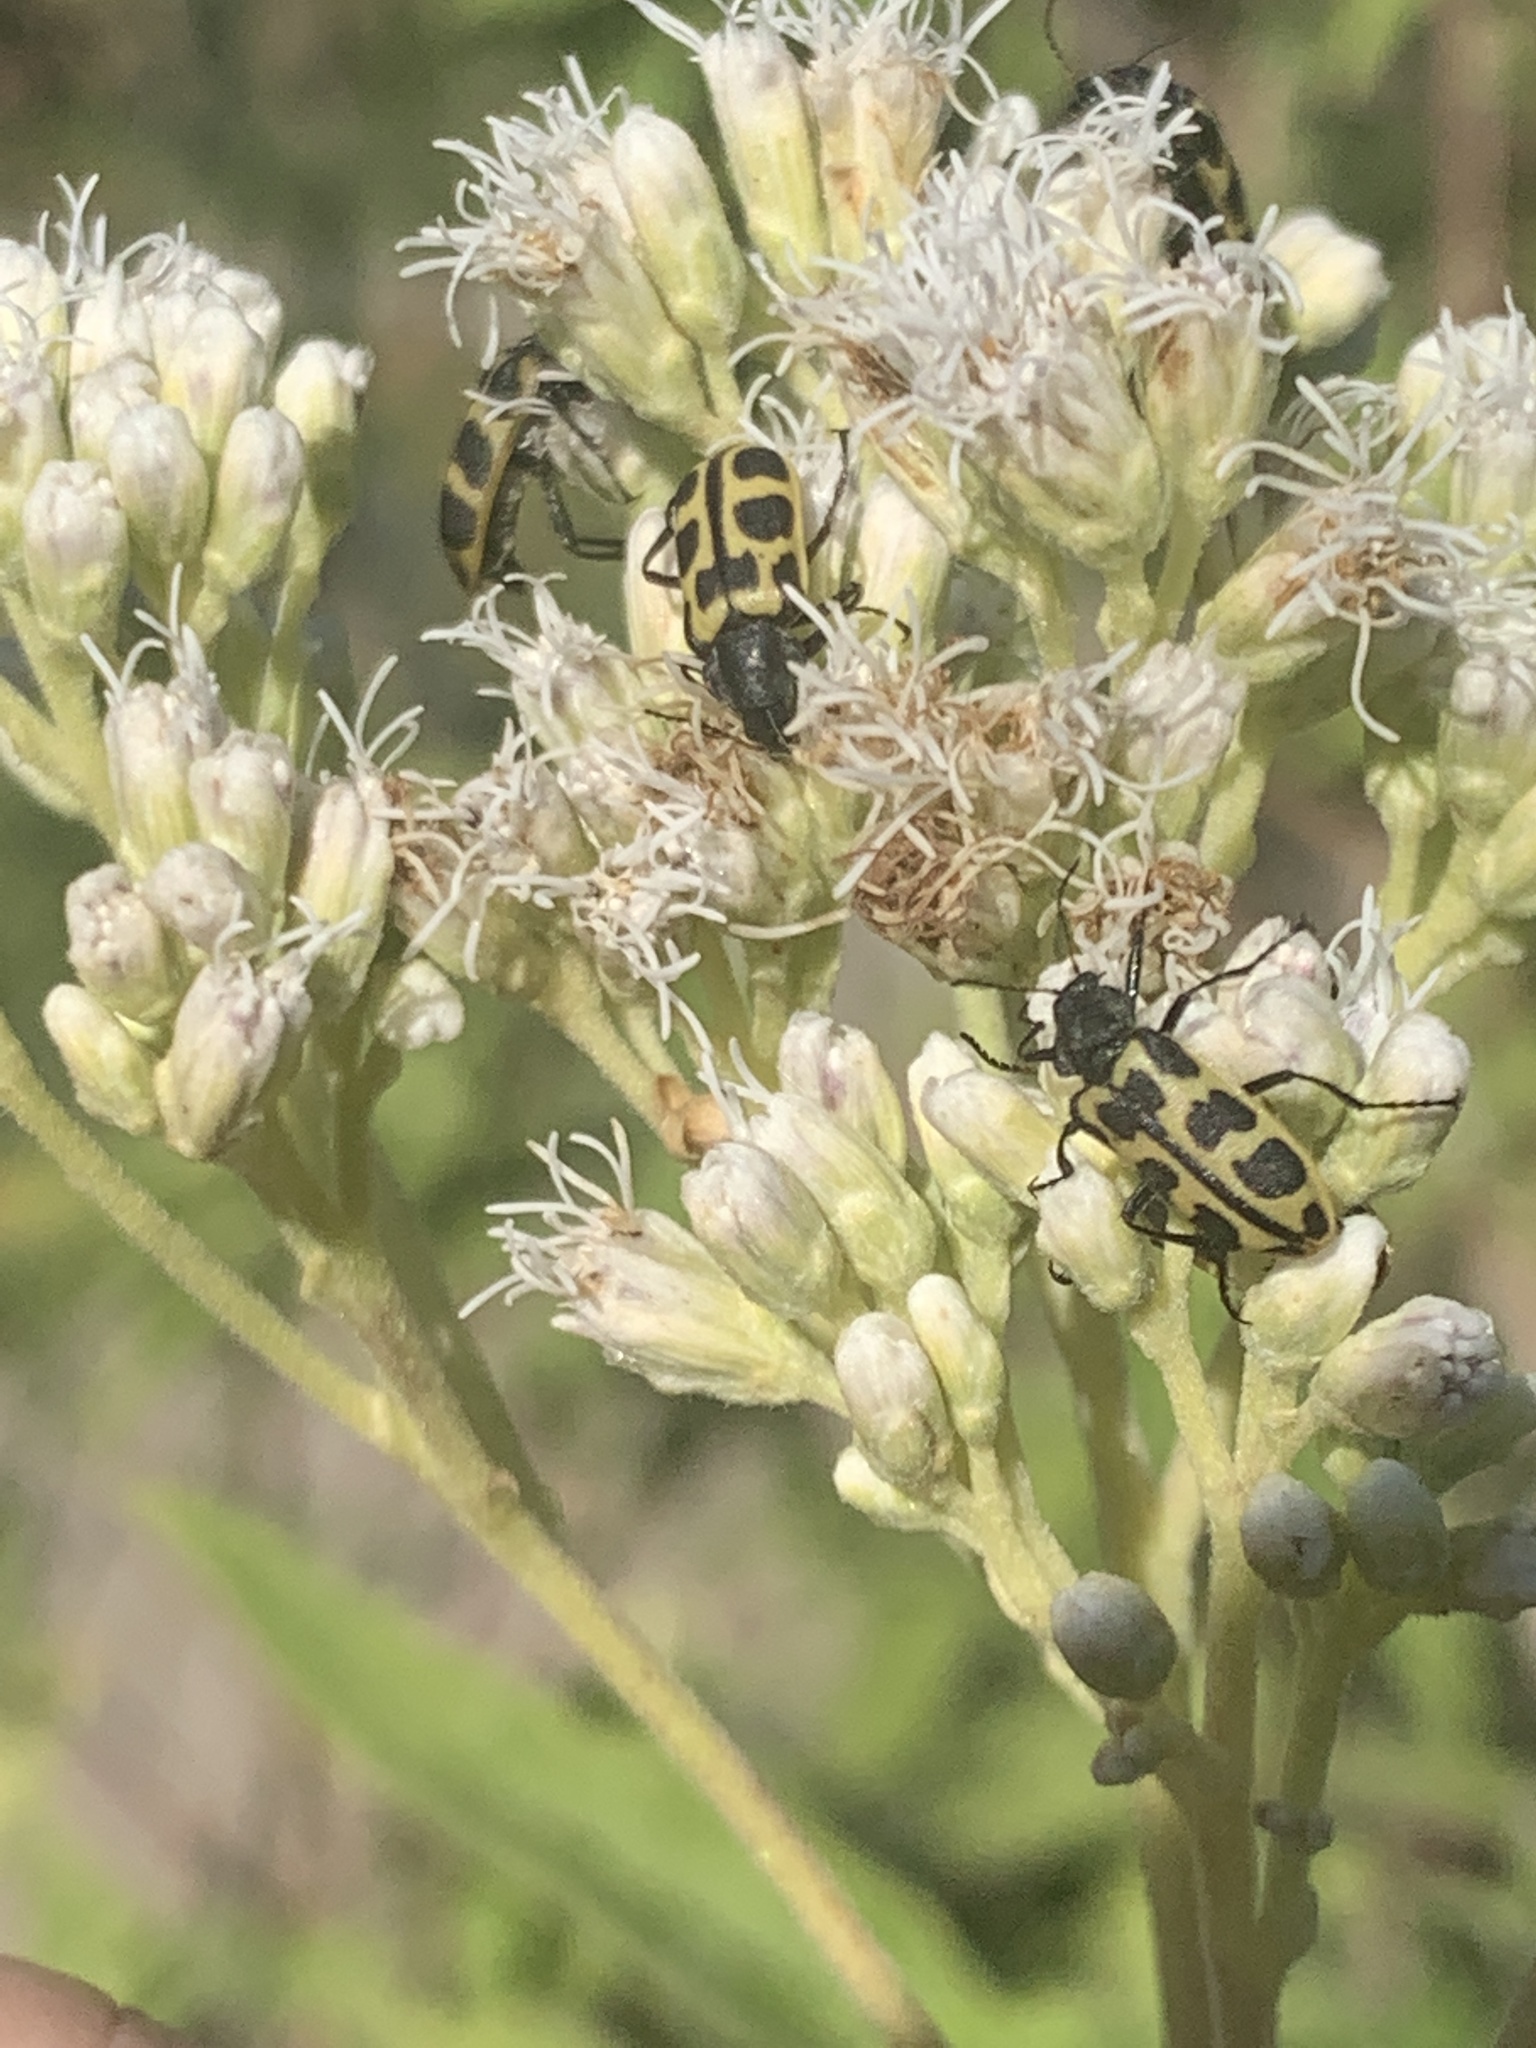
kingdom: Animalia
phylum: Arthropoda
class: Insecta
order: Coleoptera
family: Melyridae
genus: Astylus
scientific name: Astylus atromaculatus
